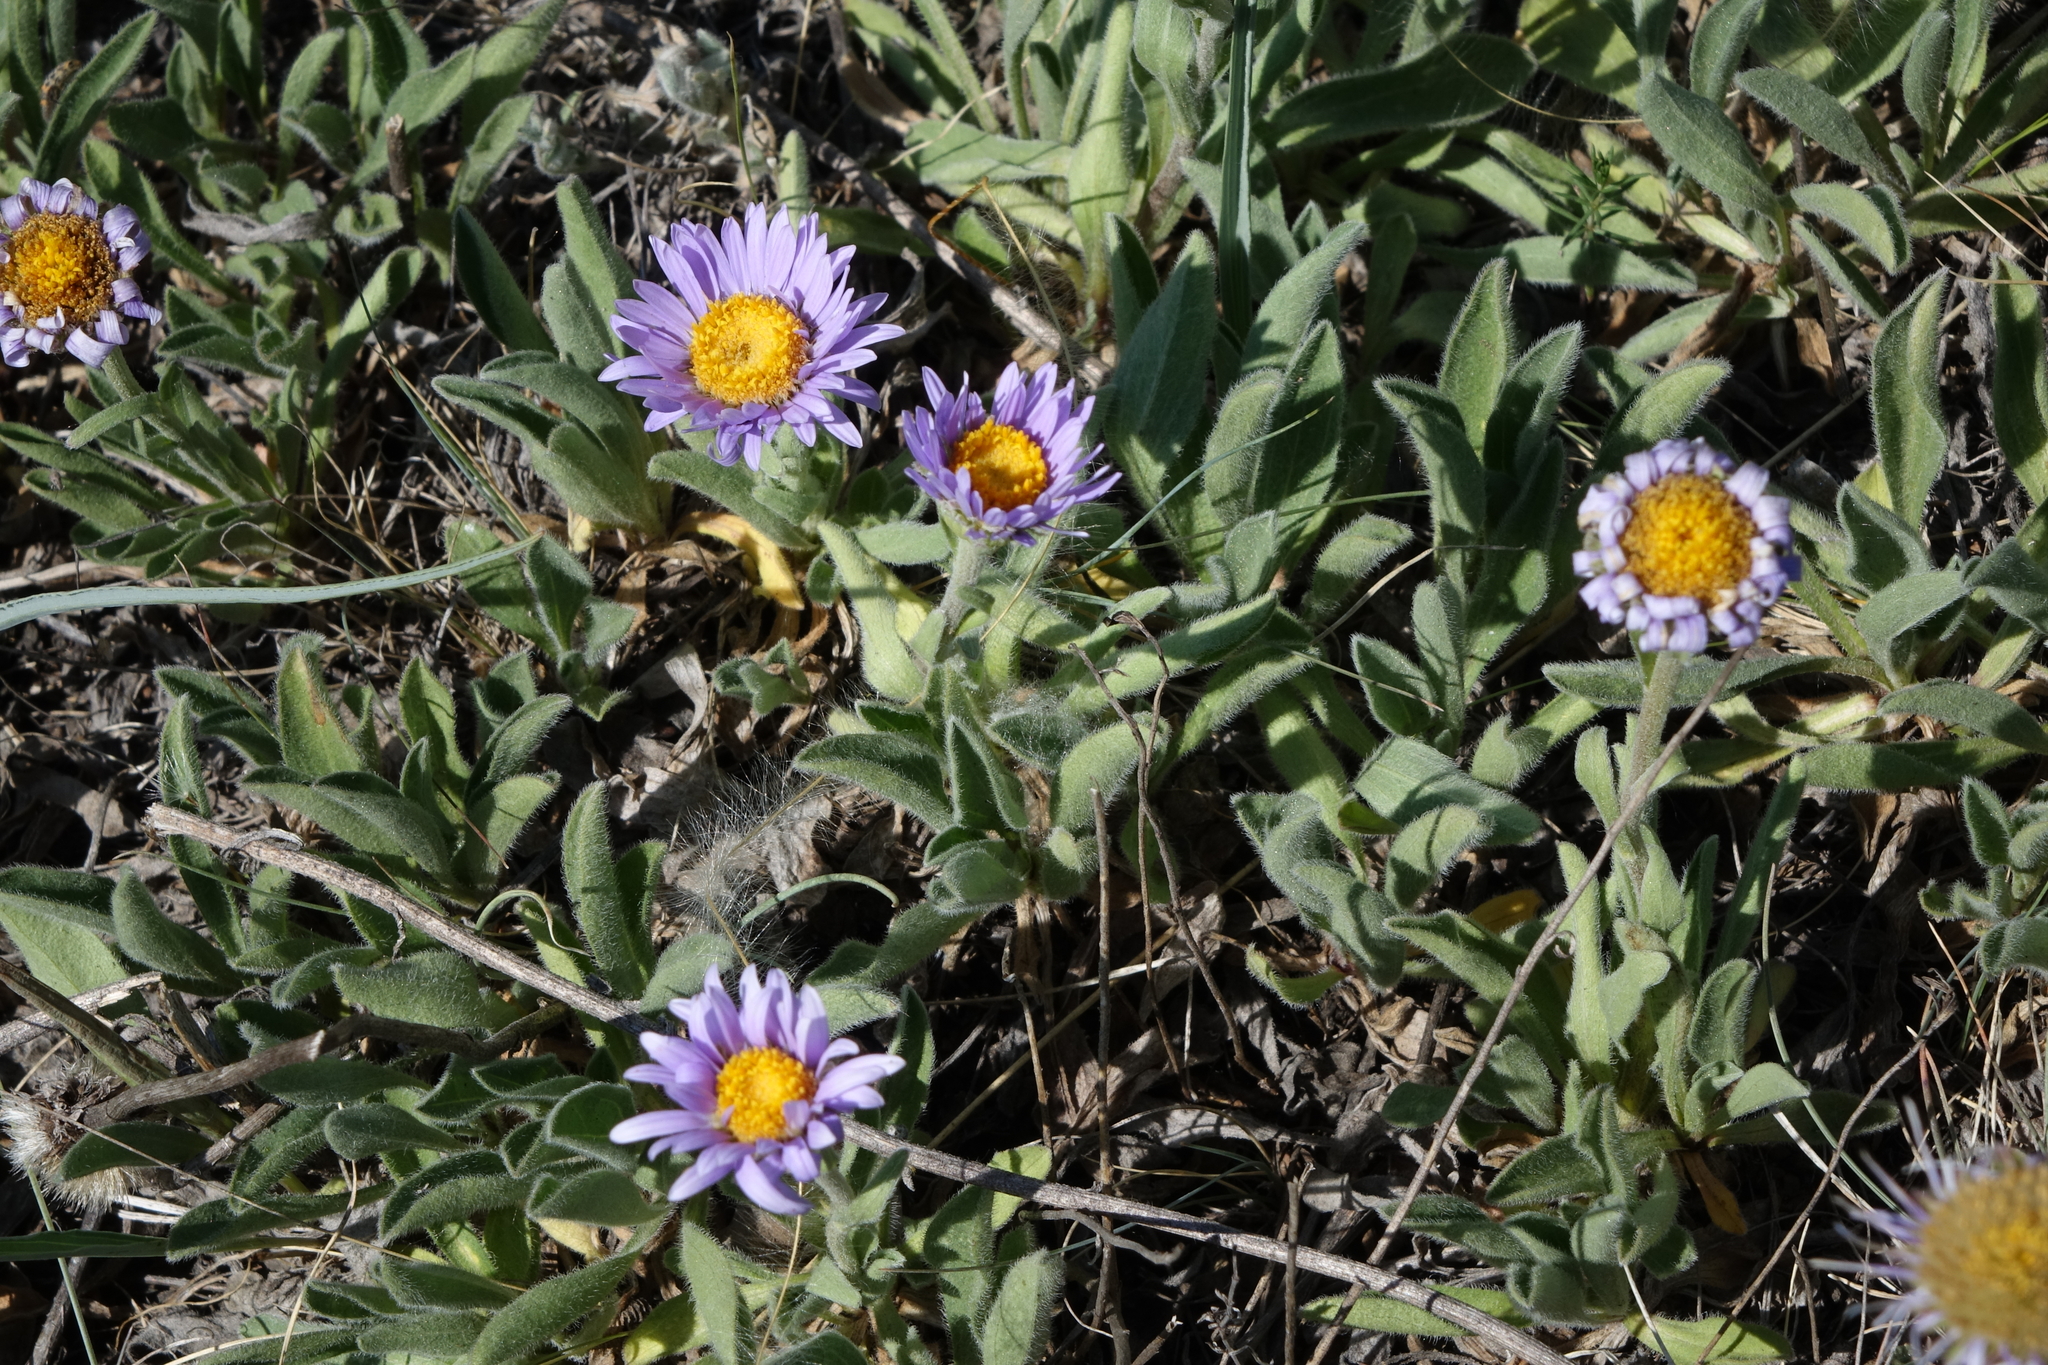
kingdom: Plantae
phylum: Tracheophyta
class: Magnoliopsida
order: Asterales
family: Asteraceae
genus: Aster
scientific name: Aster alpinus
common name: Alpine aster
